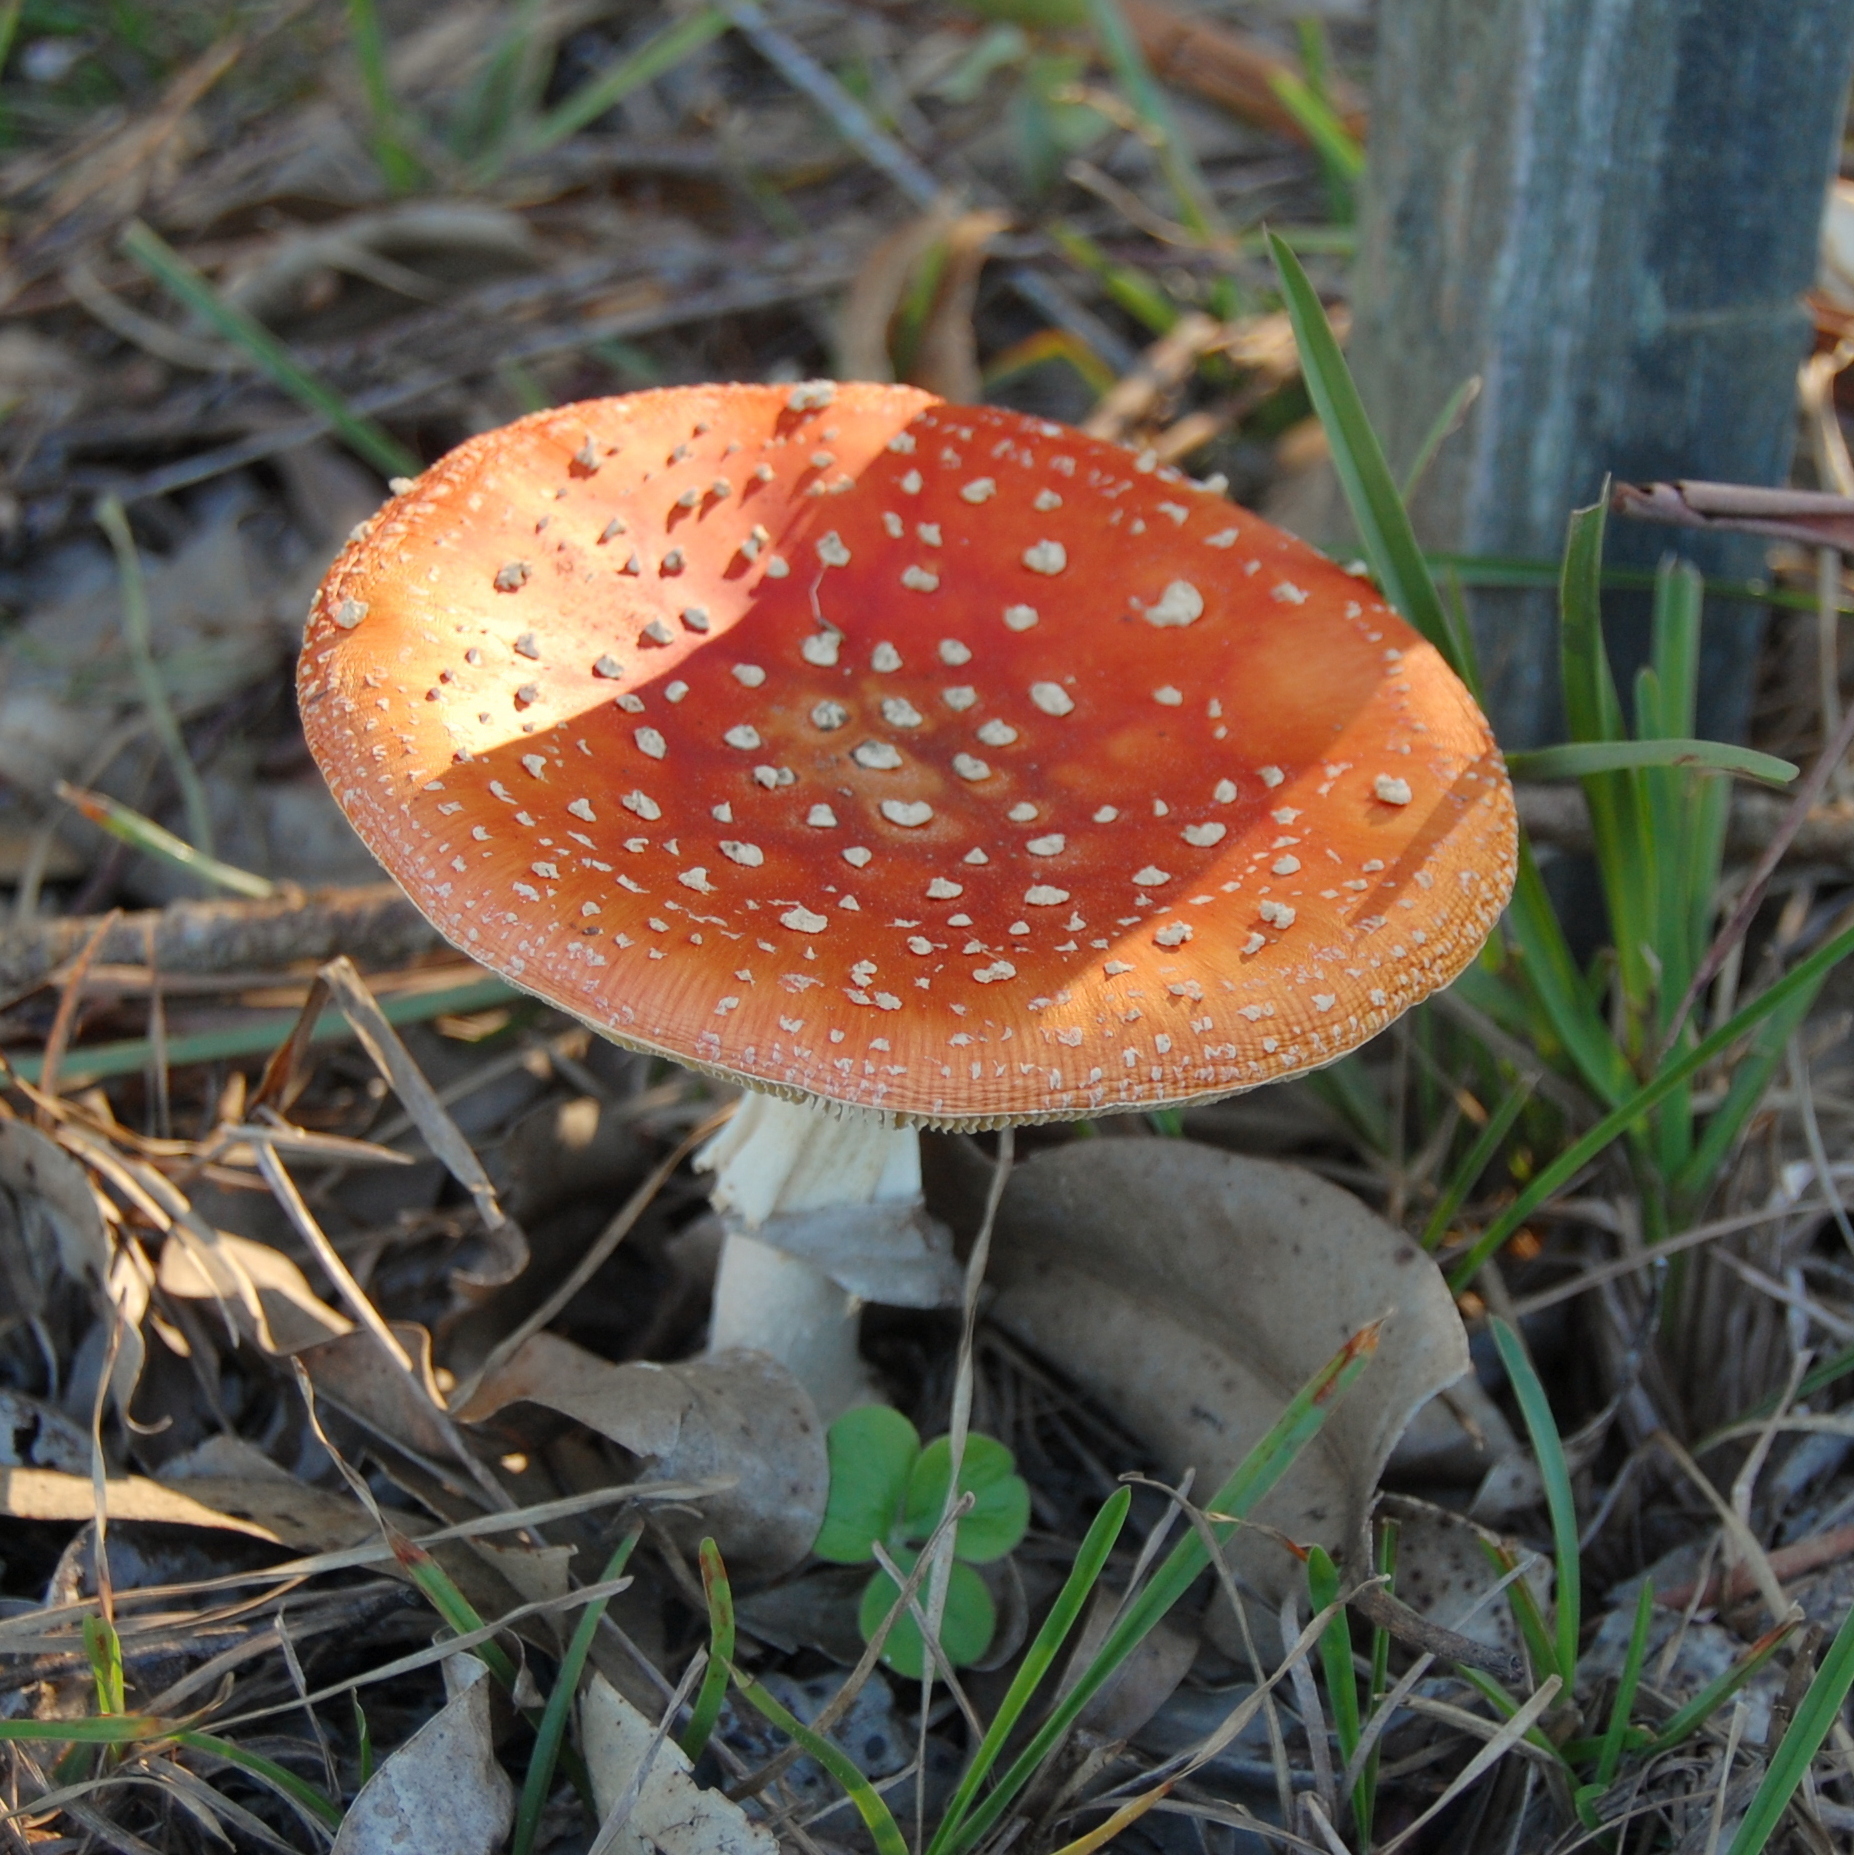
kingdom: Fungi
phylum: Basidiomycota
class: Agaricomycetes
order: Agaricales
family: Amanitaceae
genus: Amanita
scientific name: Amanita muscaria
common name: Fly agaric
